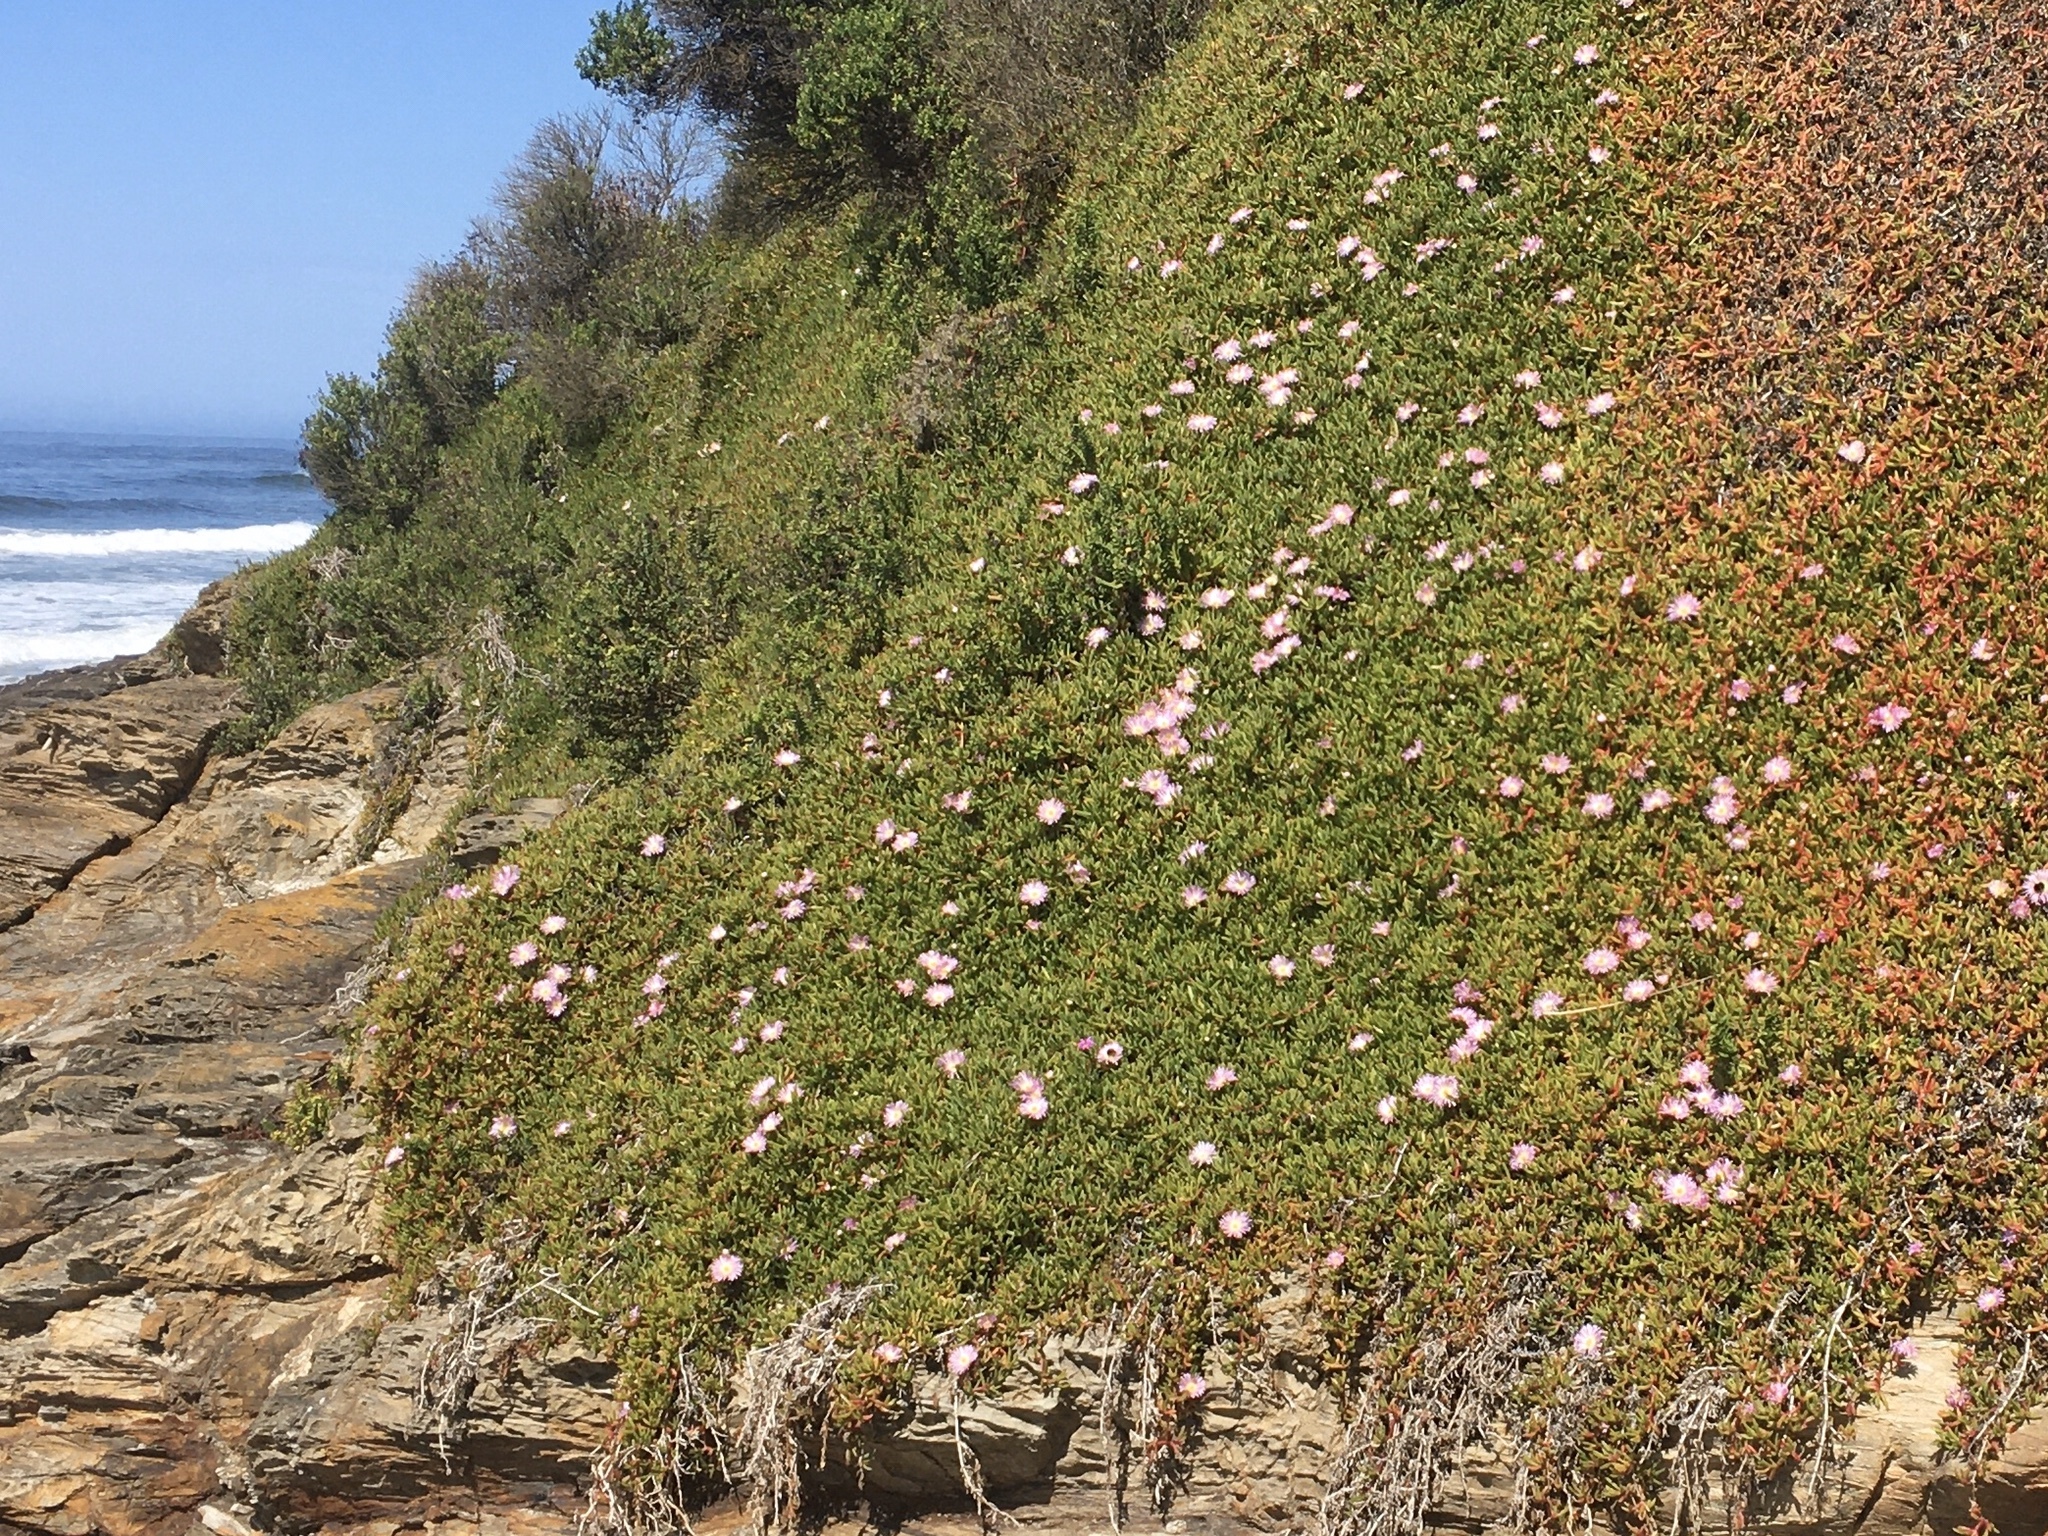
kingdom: Plantae
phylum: Tracheophyta
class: Magnoliopsida
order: Caryophyllales
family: Aizoaceae
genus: Disphyma
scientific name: Disphyma australe
